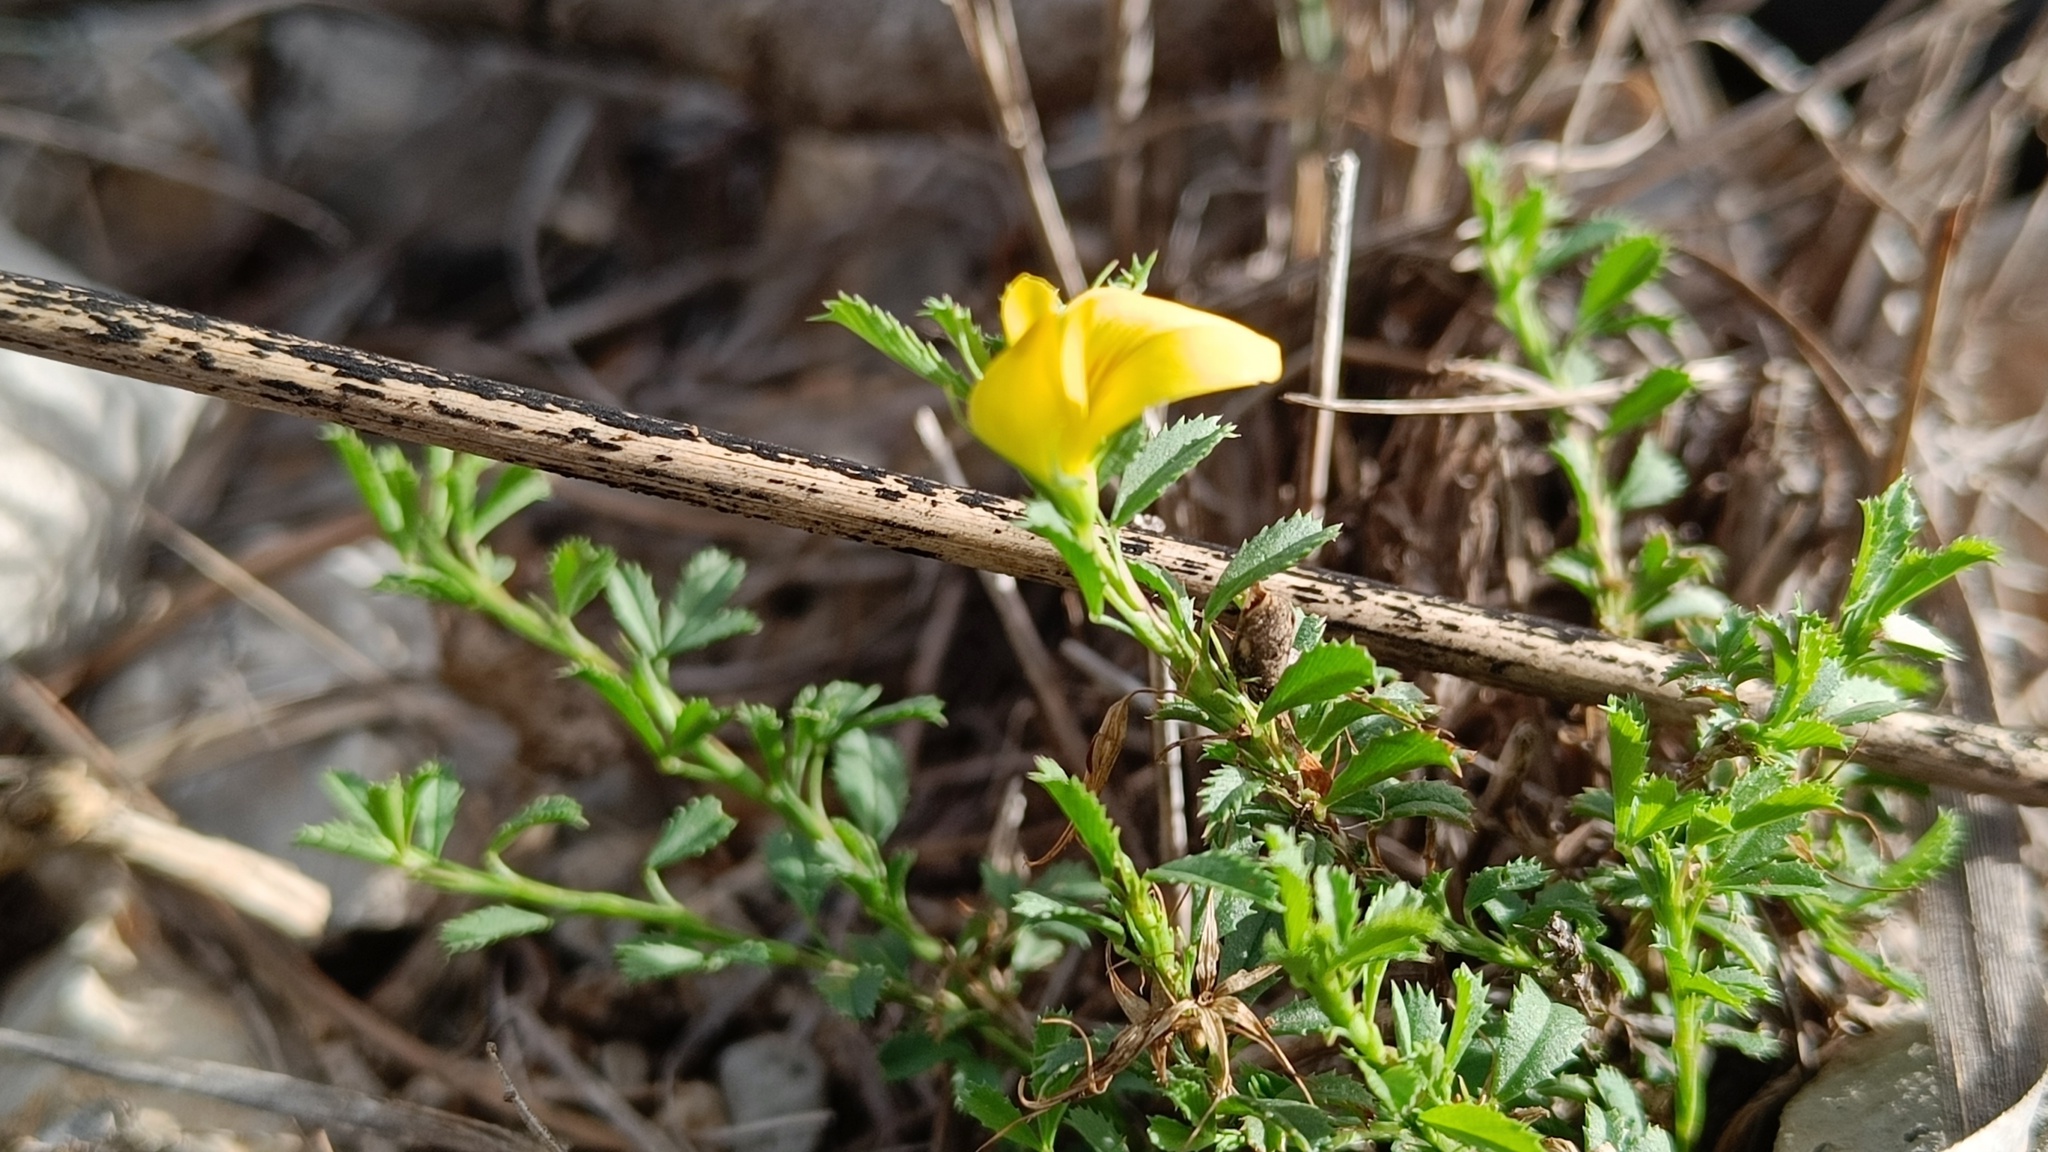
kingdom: Plantae
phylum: Tracheophyta
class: Magnoliopsida
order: Fabales
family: Fabaceae
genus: Ononis
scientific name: Ononis minutissima
